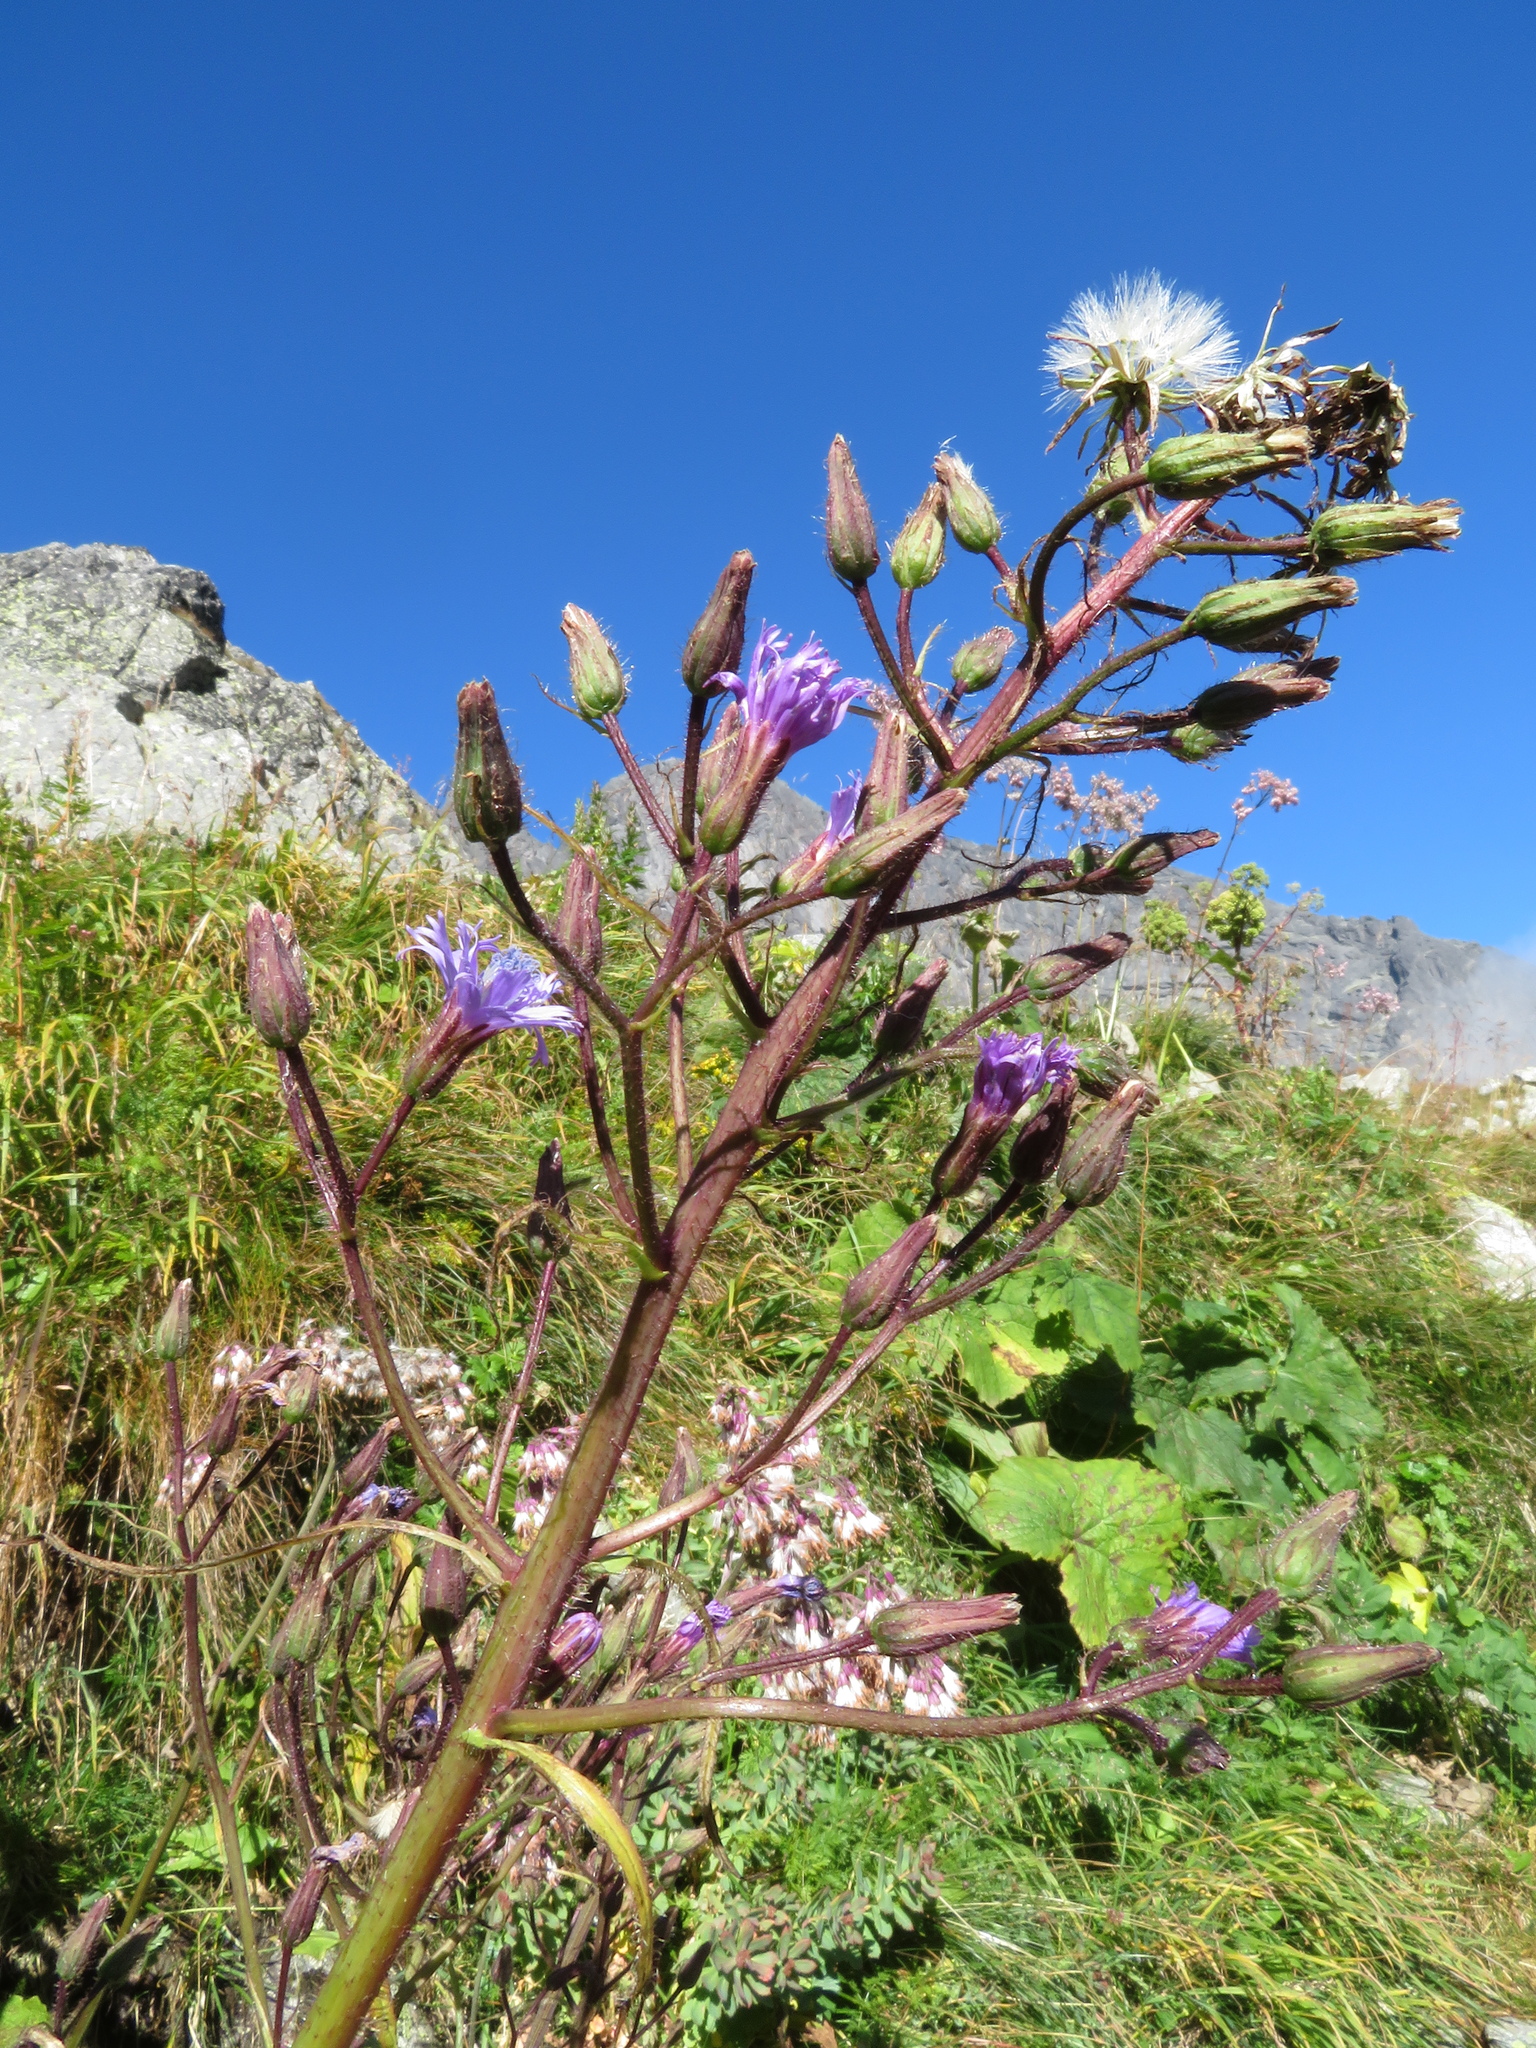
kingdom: Plantae
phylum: Tracheophyta
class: Magnoliopsida
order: Asterales
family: Asteraceae
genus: Cicerbita
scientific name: Cicerbita alpina
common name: Alpine blue-sow-thistle
